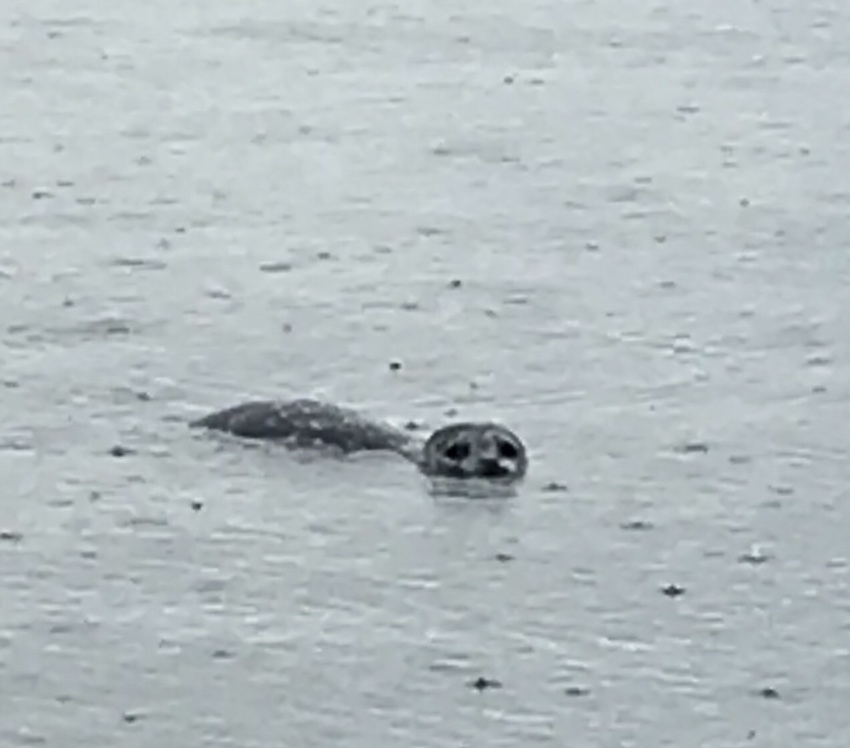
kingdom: Animalia
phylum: Chordata
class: Mammalia
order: Carnivora
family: Phocidae
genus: Phoca
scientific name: Phoca vitulina
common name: Harbor seal
